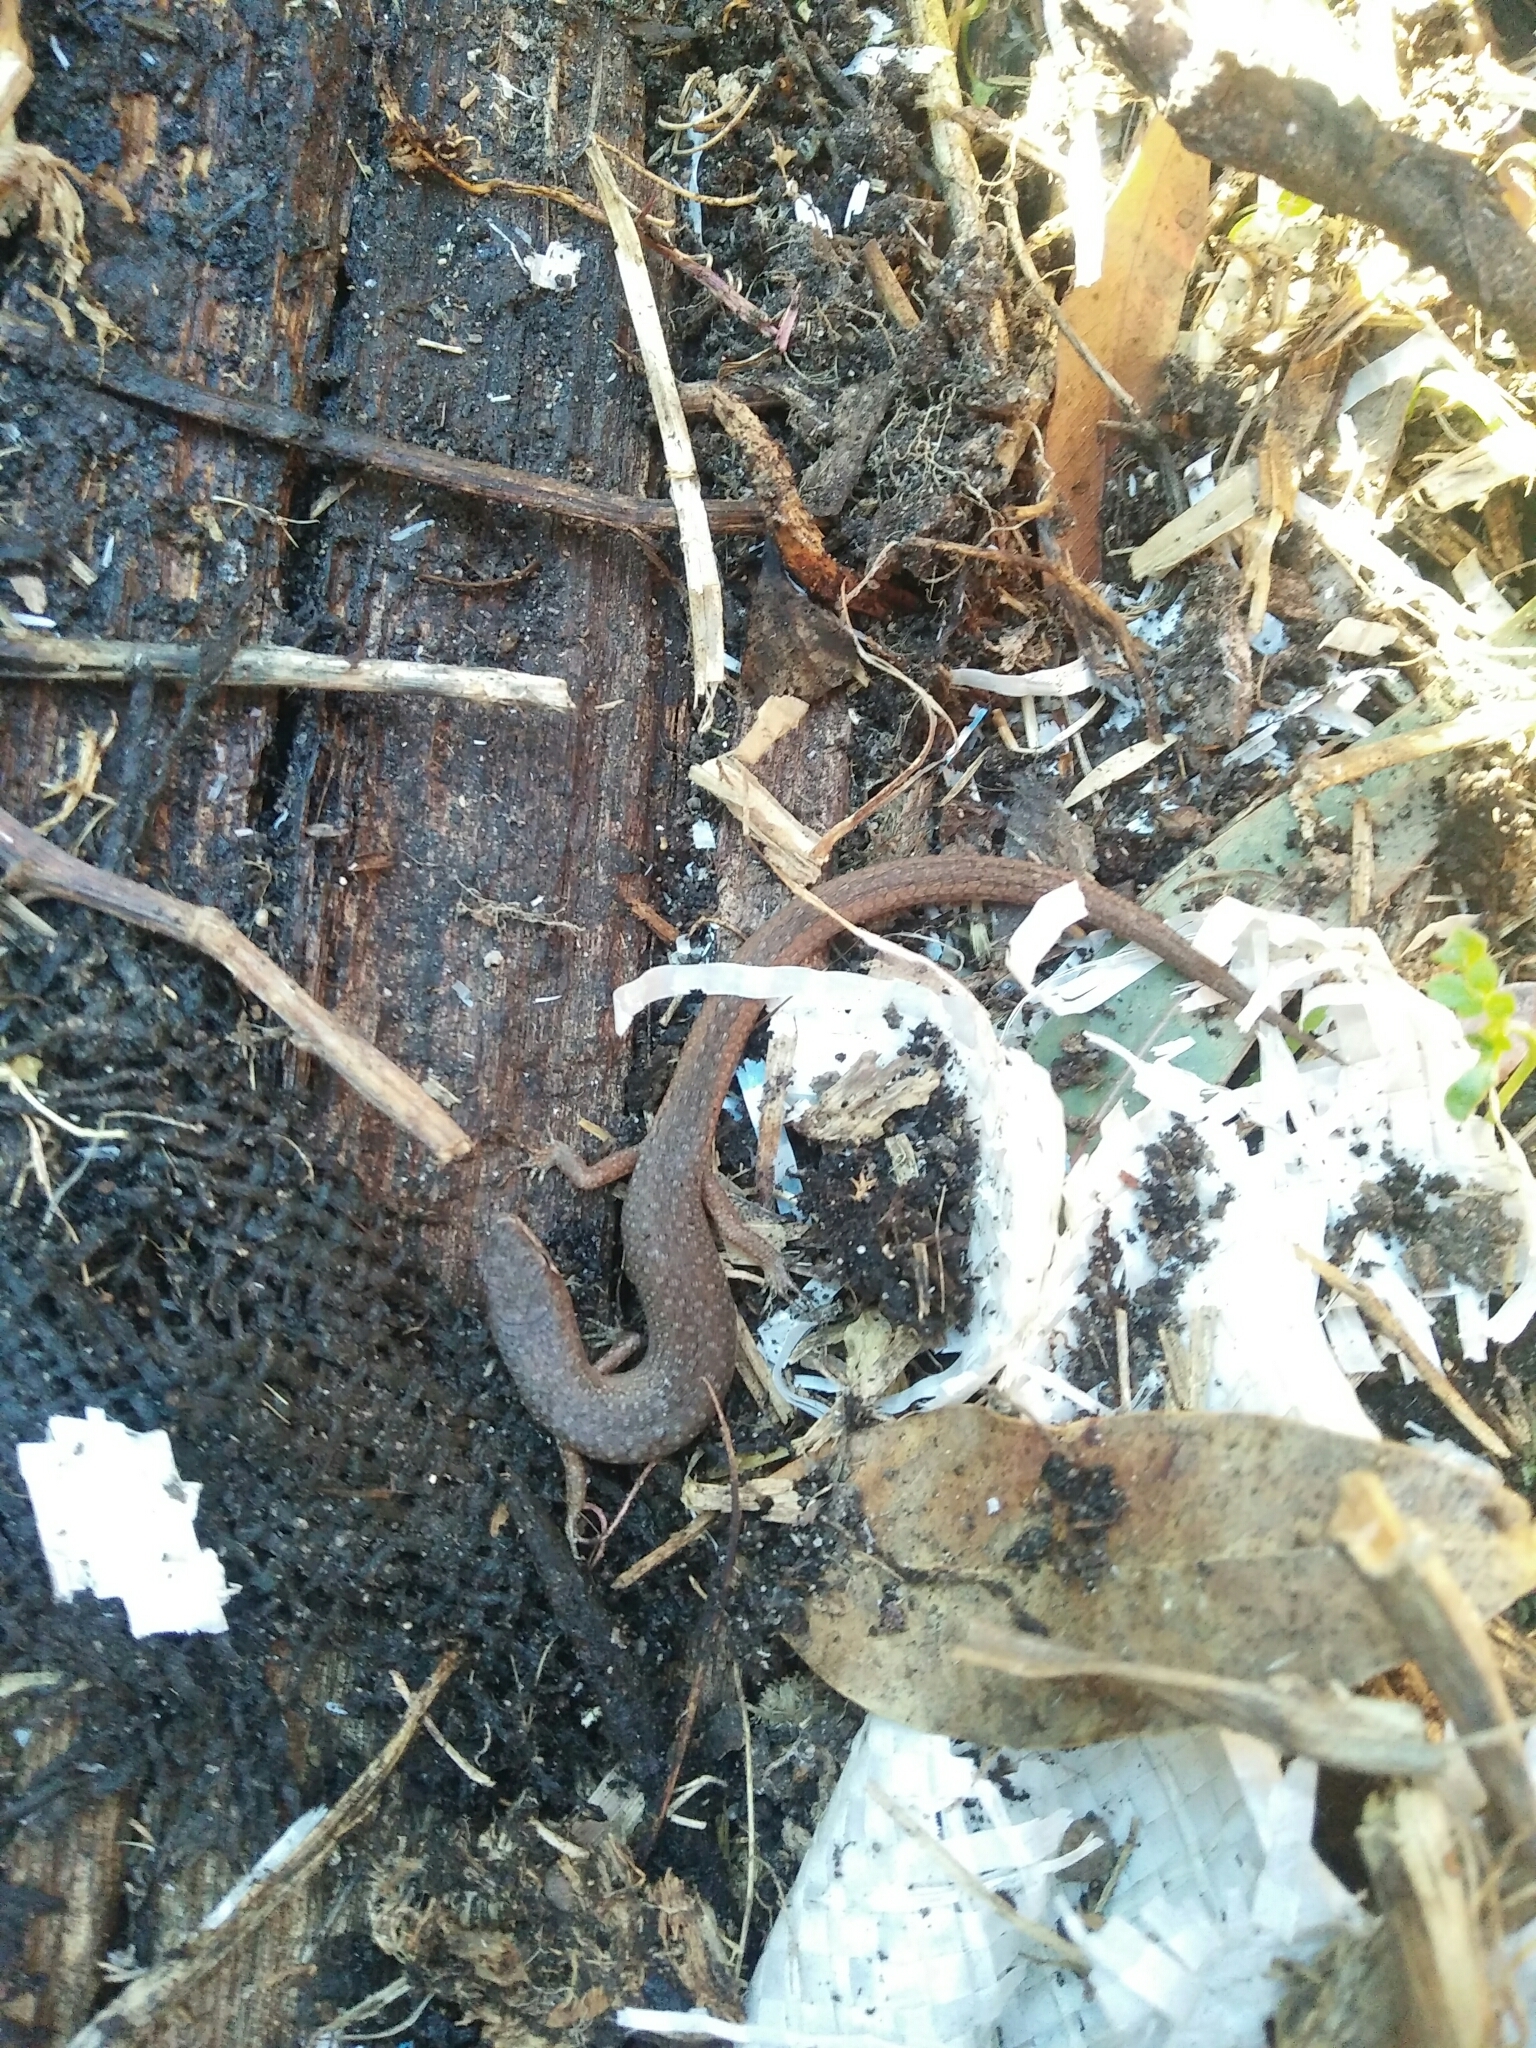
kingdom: Animalia
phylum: Chordata
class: Squamata
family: Scincidae
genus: Saproscincus
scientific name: Saproscincus mustelinus
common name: Southern weasel skink
